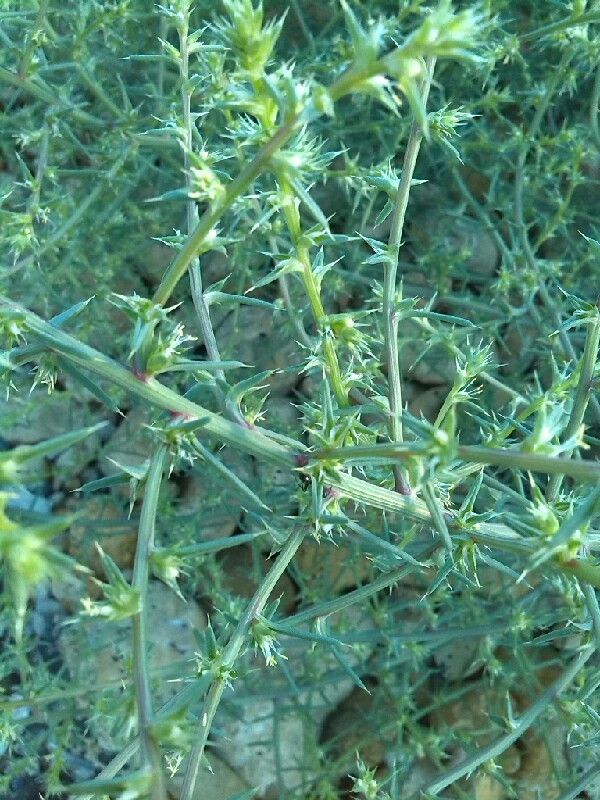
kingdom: Plantae
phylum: Tracheophyta
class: Magnoliopsida
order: Caryophyllales
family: Amaranthaceae
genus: Salsola
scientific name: Salsola kali
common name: Saltwort
